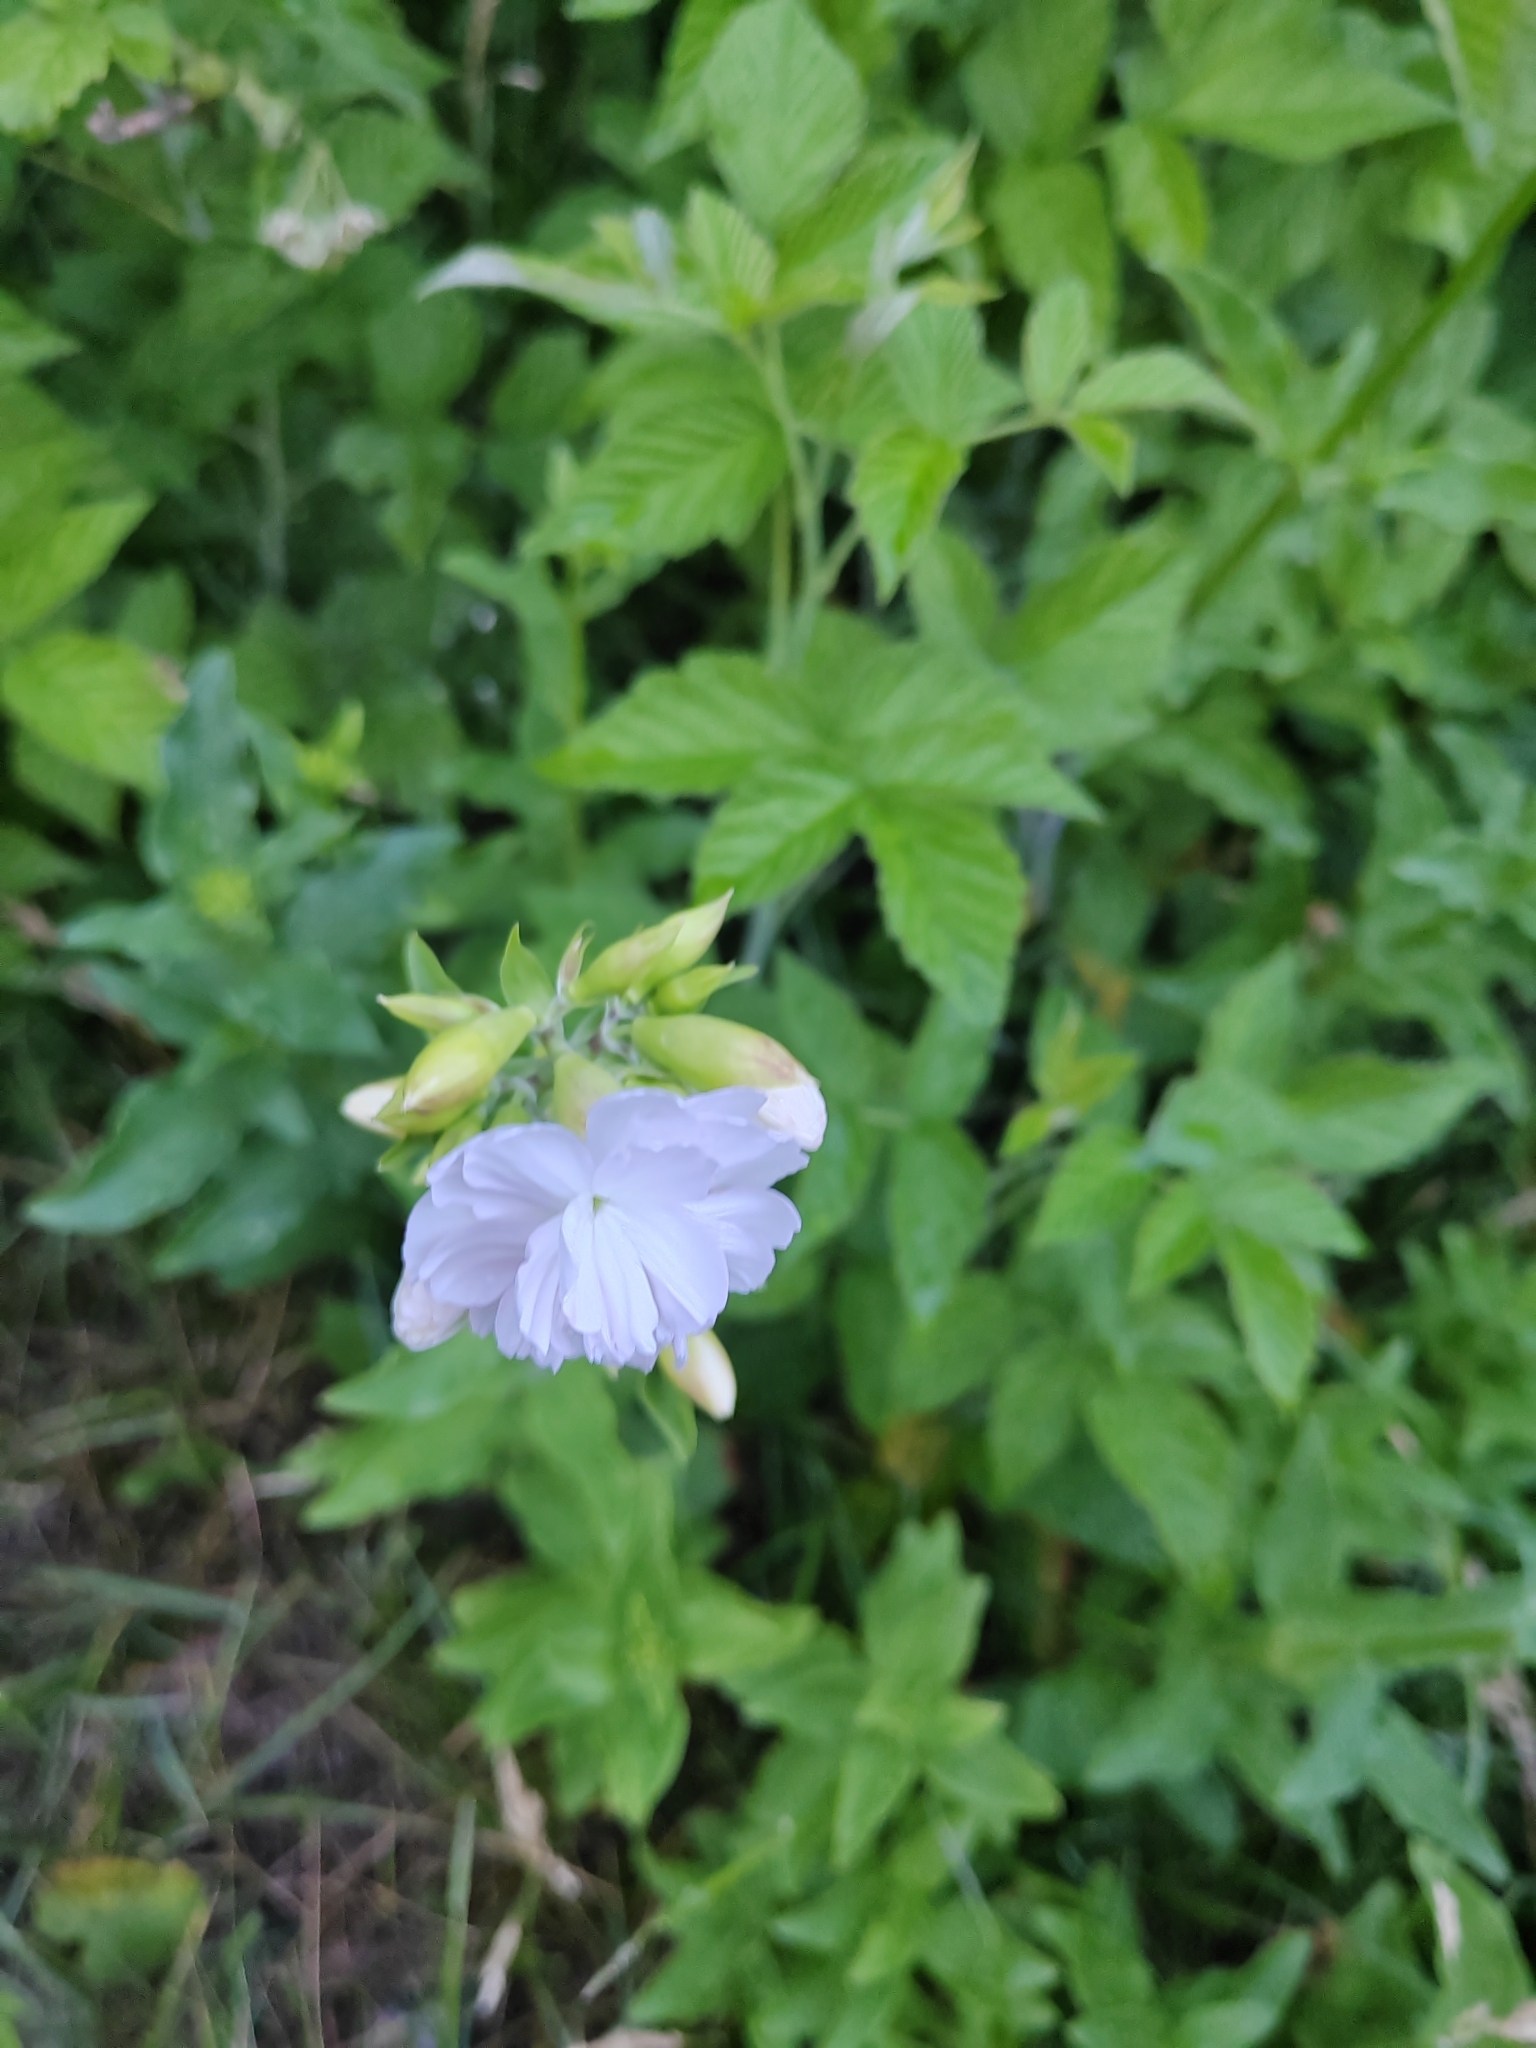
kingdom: Plantae
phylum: Tracheophyta
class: Magnoliopsida
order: Caryophyllales
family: Caryophyllaceae
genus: Saponaria
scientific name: Saponaria officinalis
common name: Soapwort
